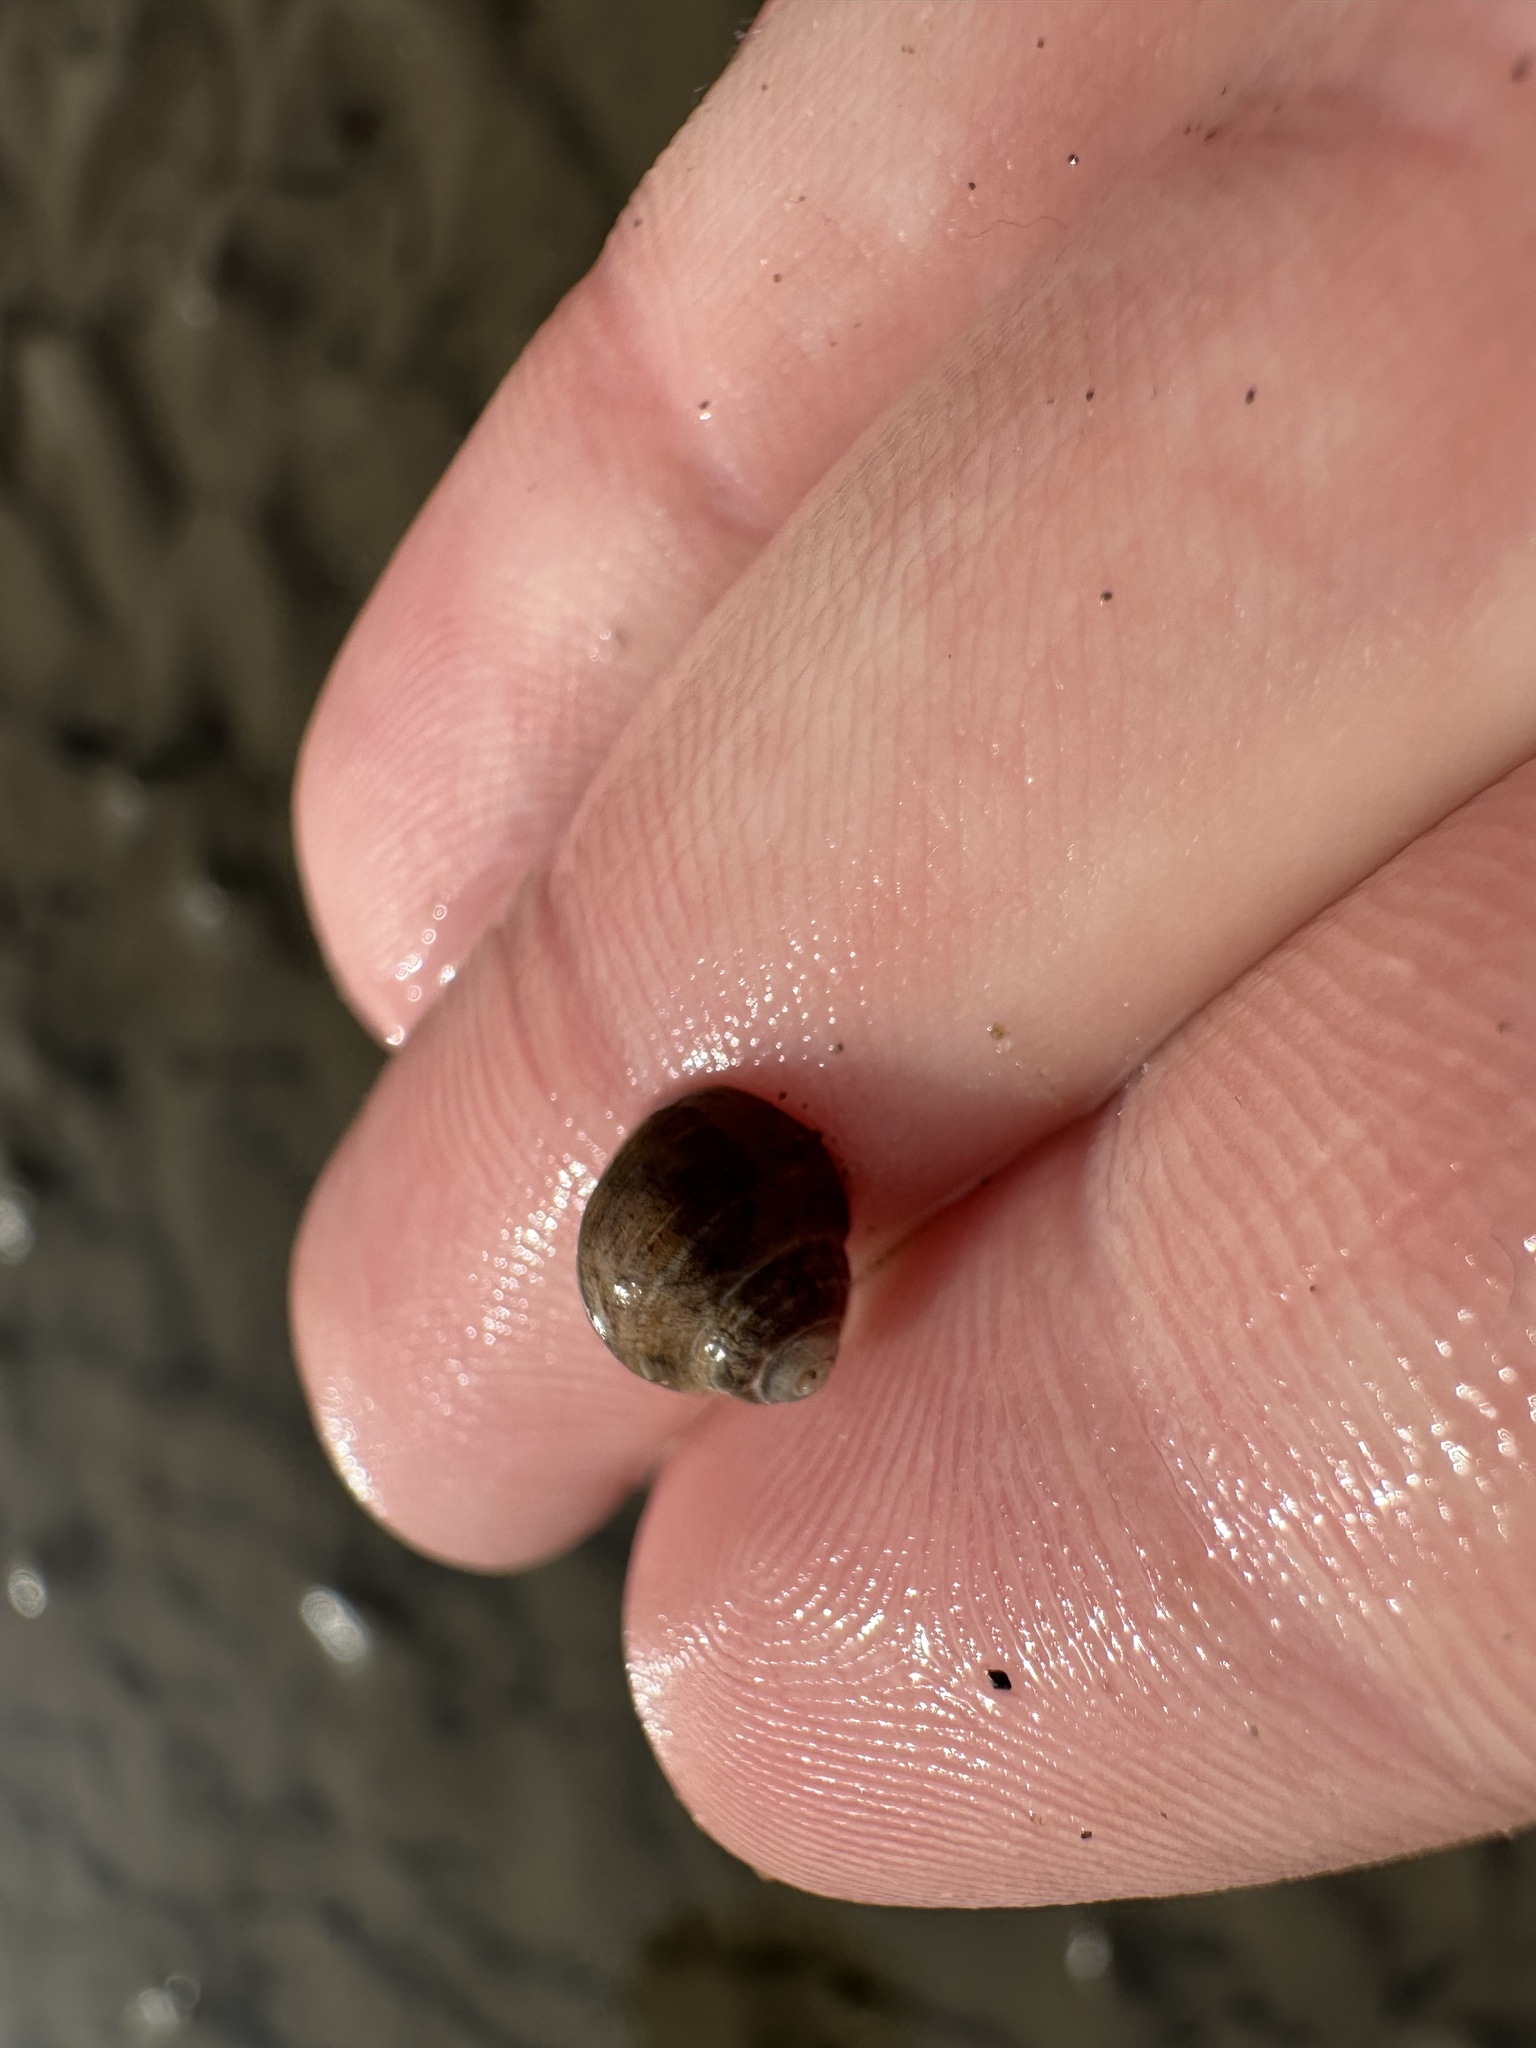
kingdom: Animalia
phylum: Mollusca
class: Gastropoda
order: Littorinimorpha
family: Littorinidae
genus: Littorina
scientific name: Littorina littorea
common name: Common periwinkle
